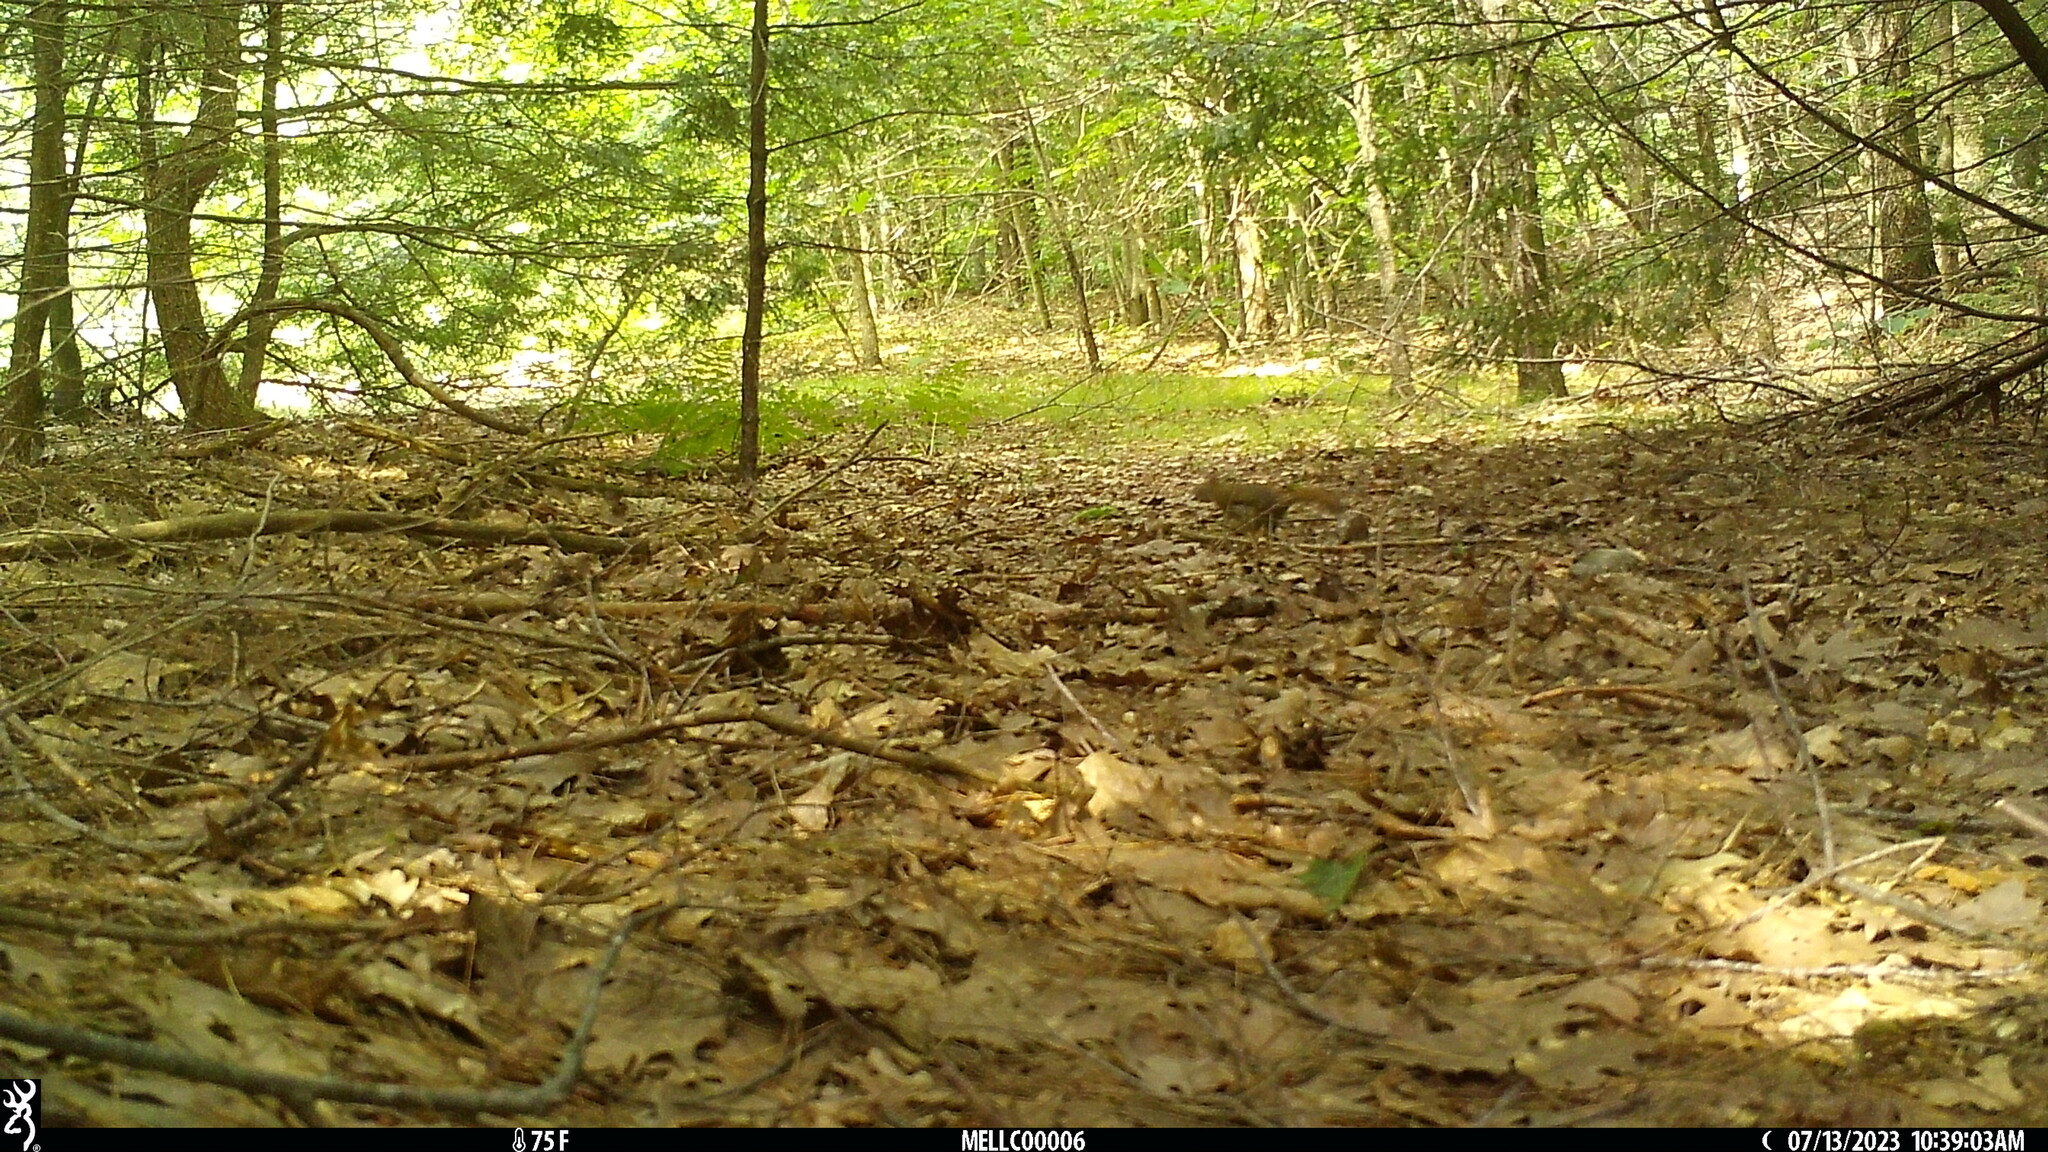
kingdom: Animalia
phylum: Chordata
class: Mammalia
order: Rodentia
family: Sciuridae
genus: Tamiasciurus
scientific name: Tamiasciurus hudsonicus
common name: Red squirrel
